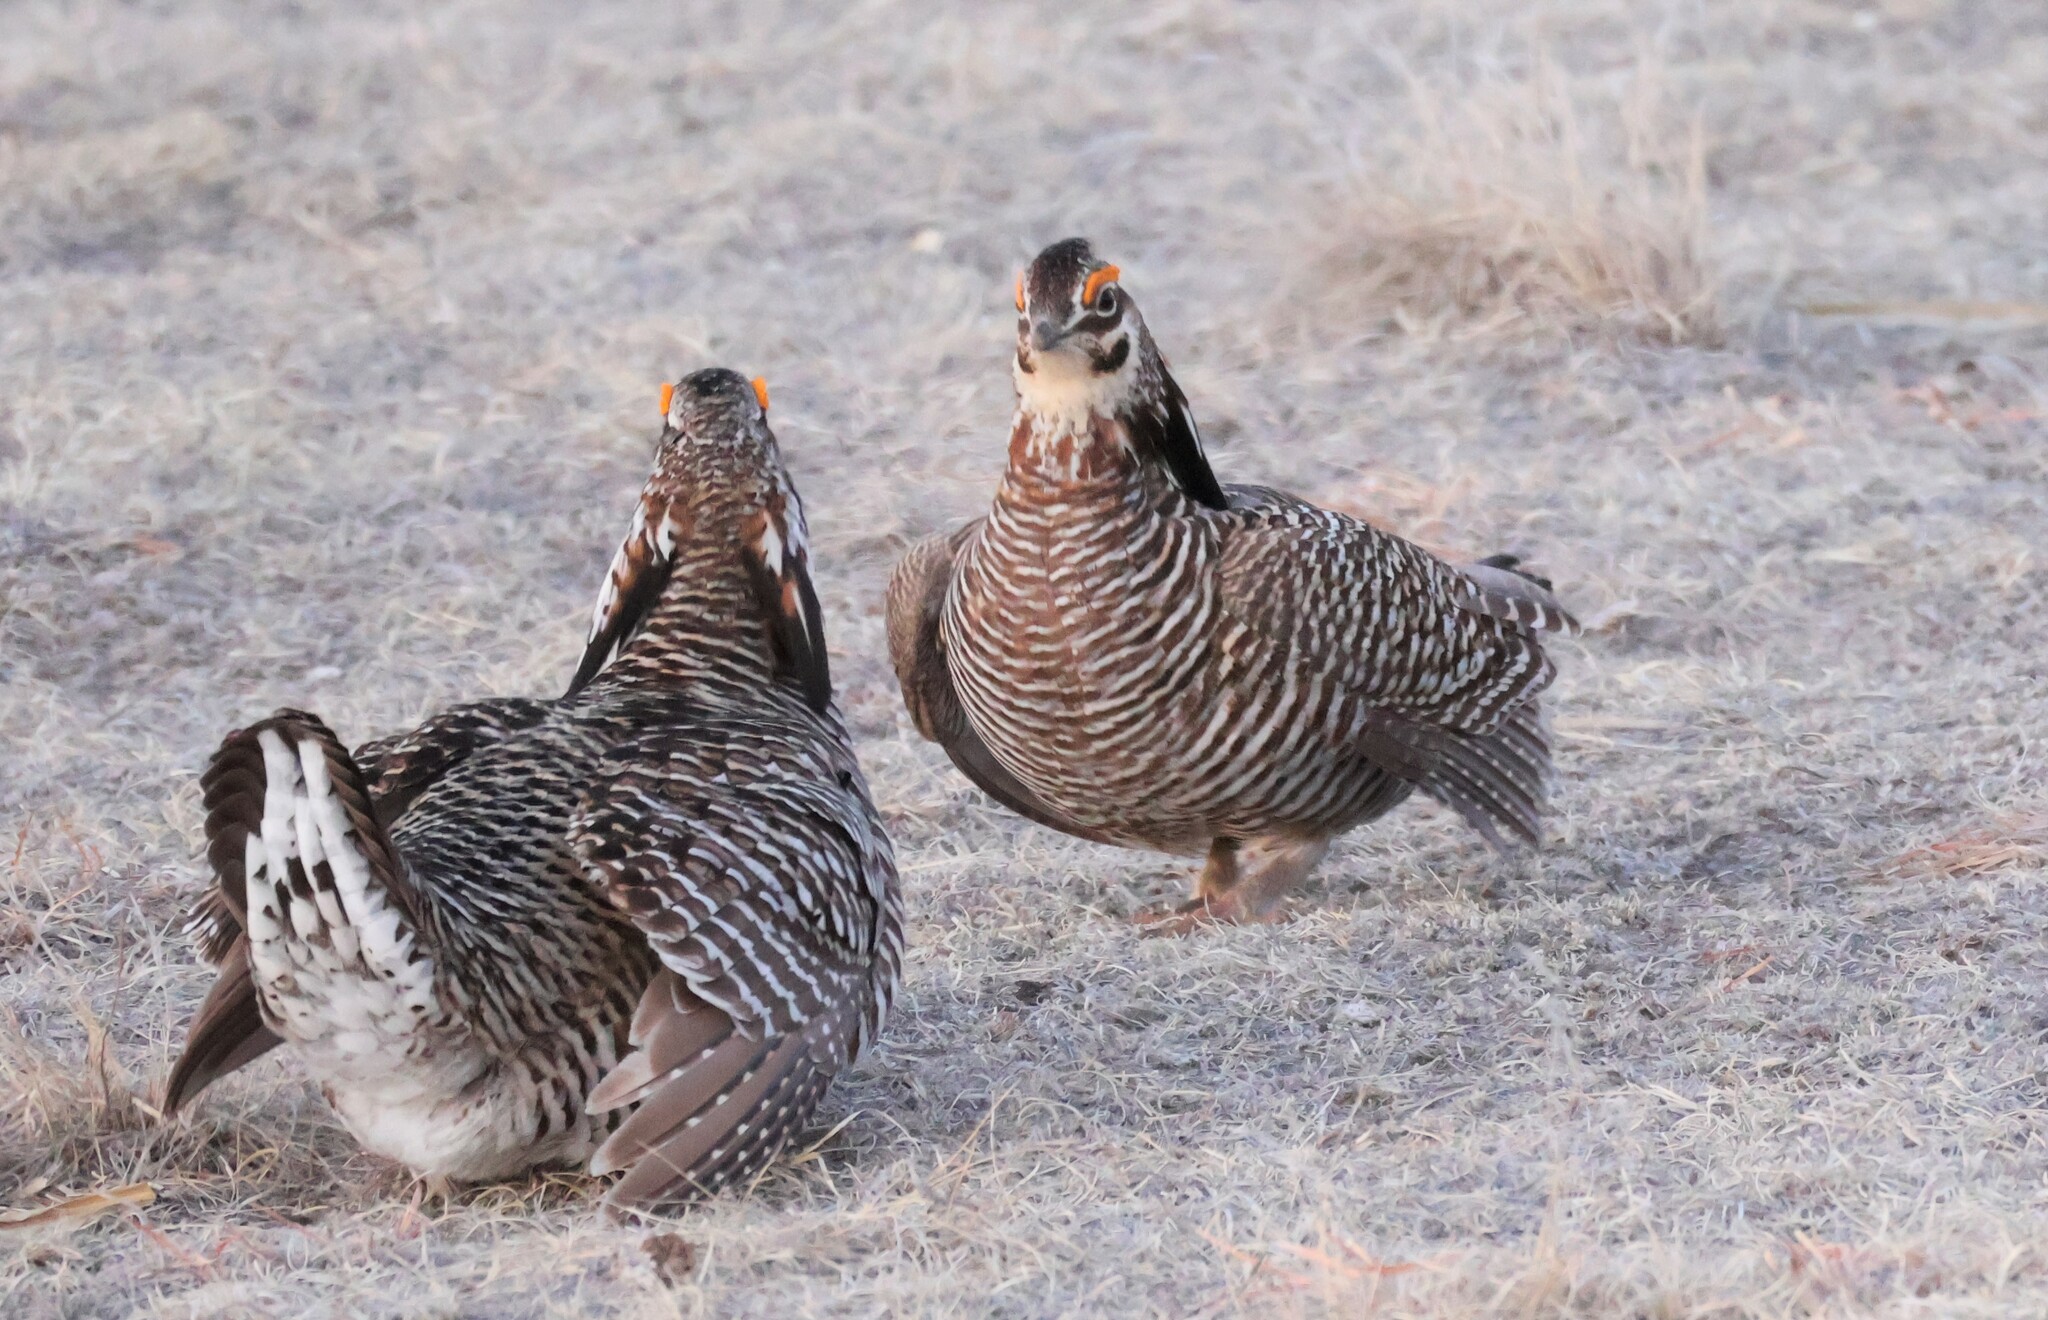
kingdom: Animalia
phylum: Chordata
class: Aves
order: Galliformes
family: Phasianidae
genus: Tympanuchus
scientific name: Tympanuchus cupido
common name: Greater prairie chicken
